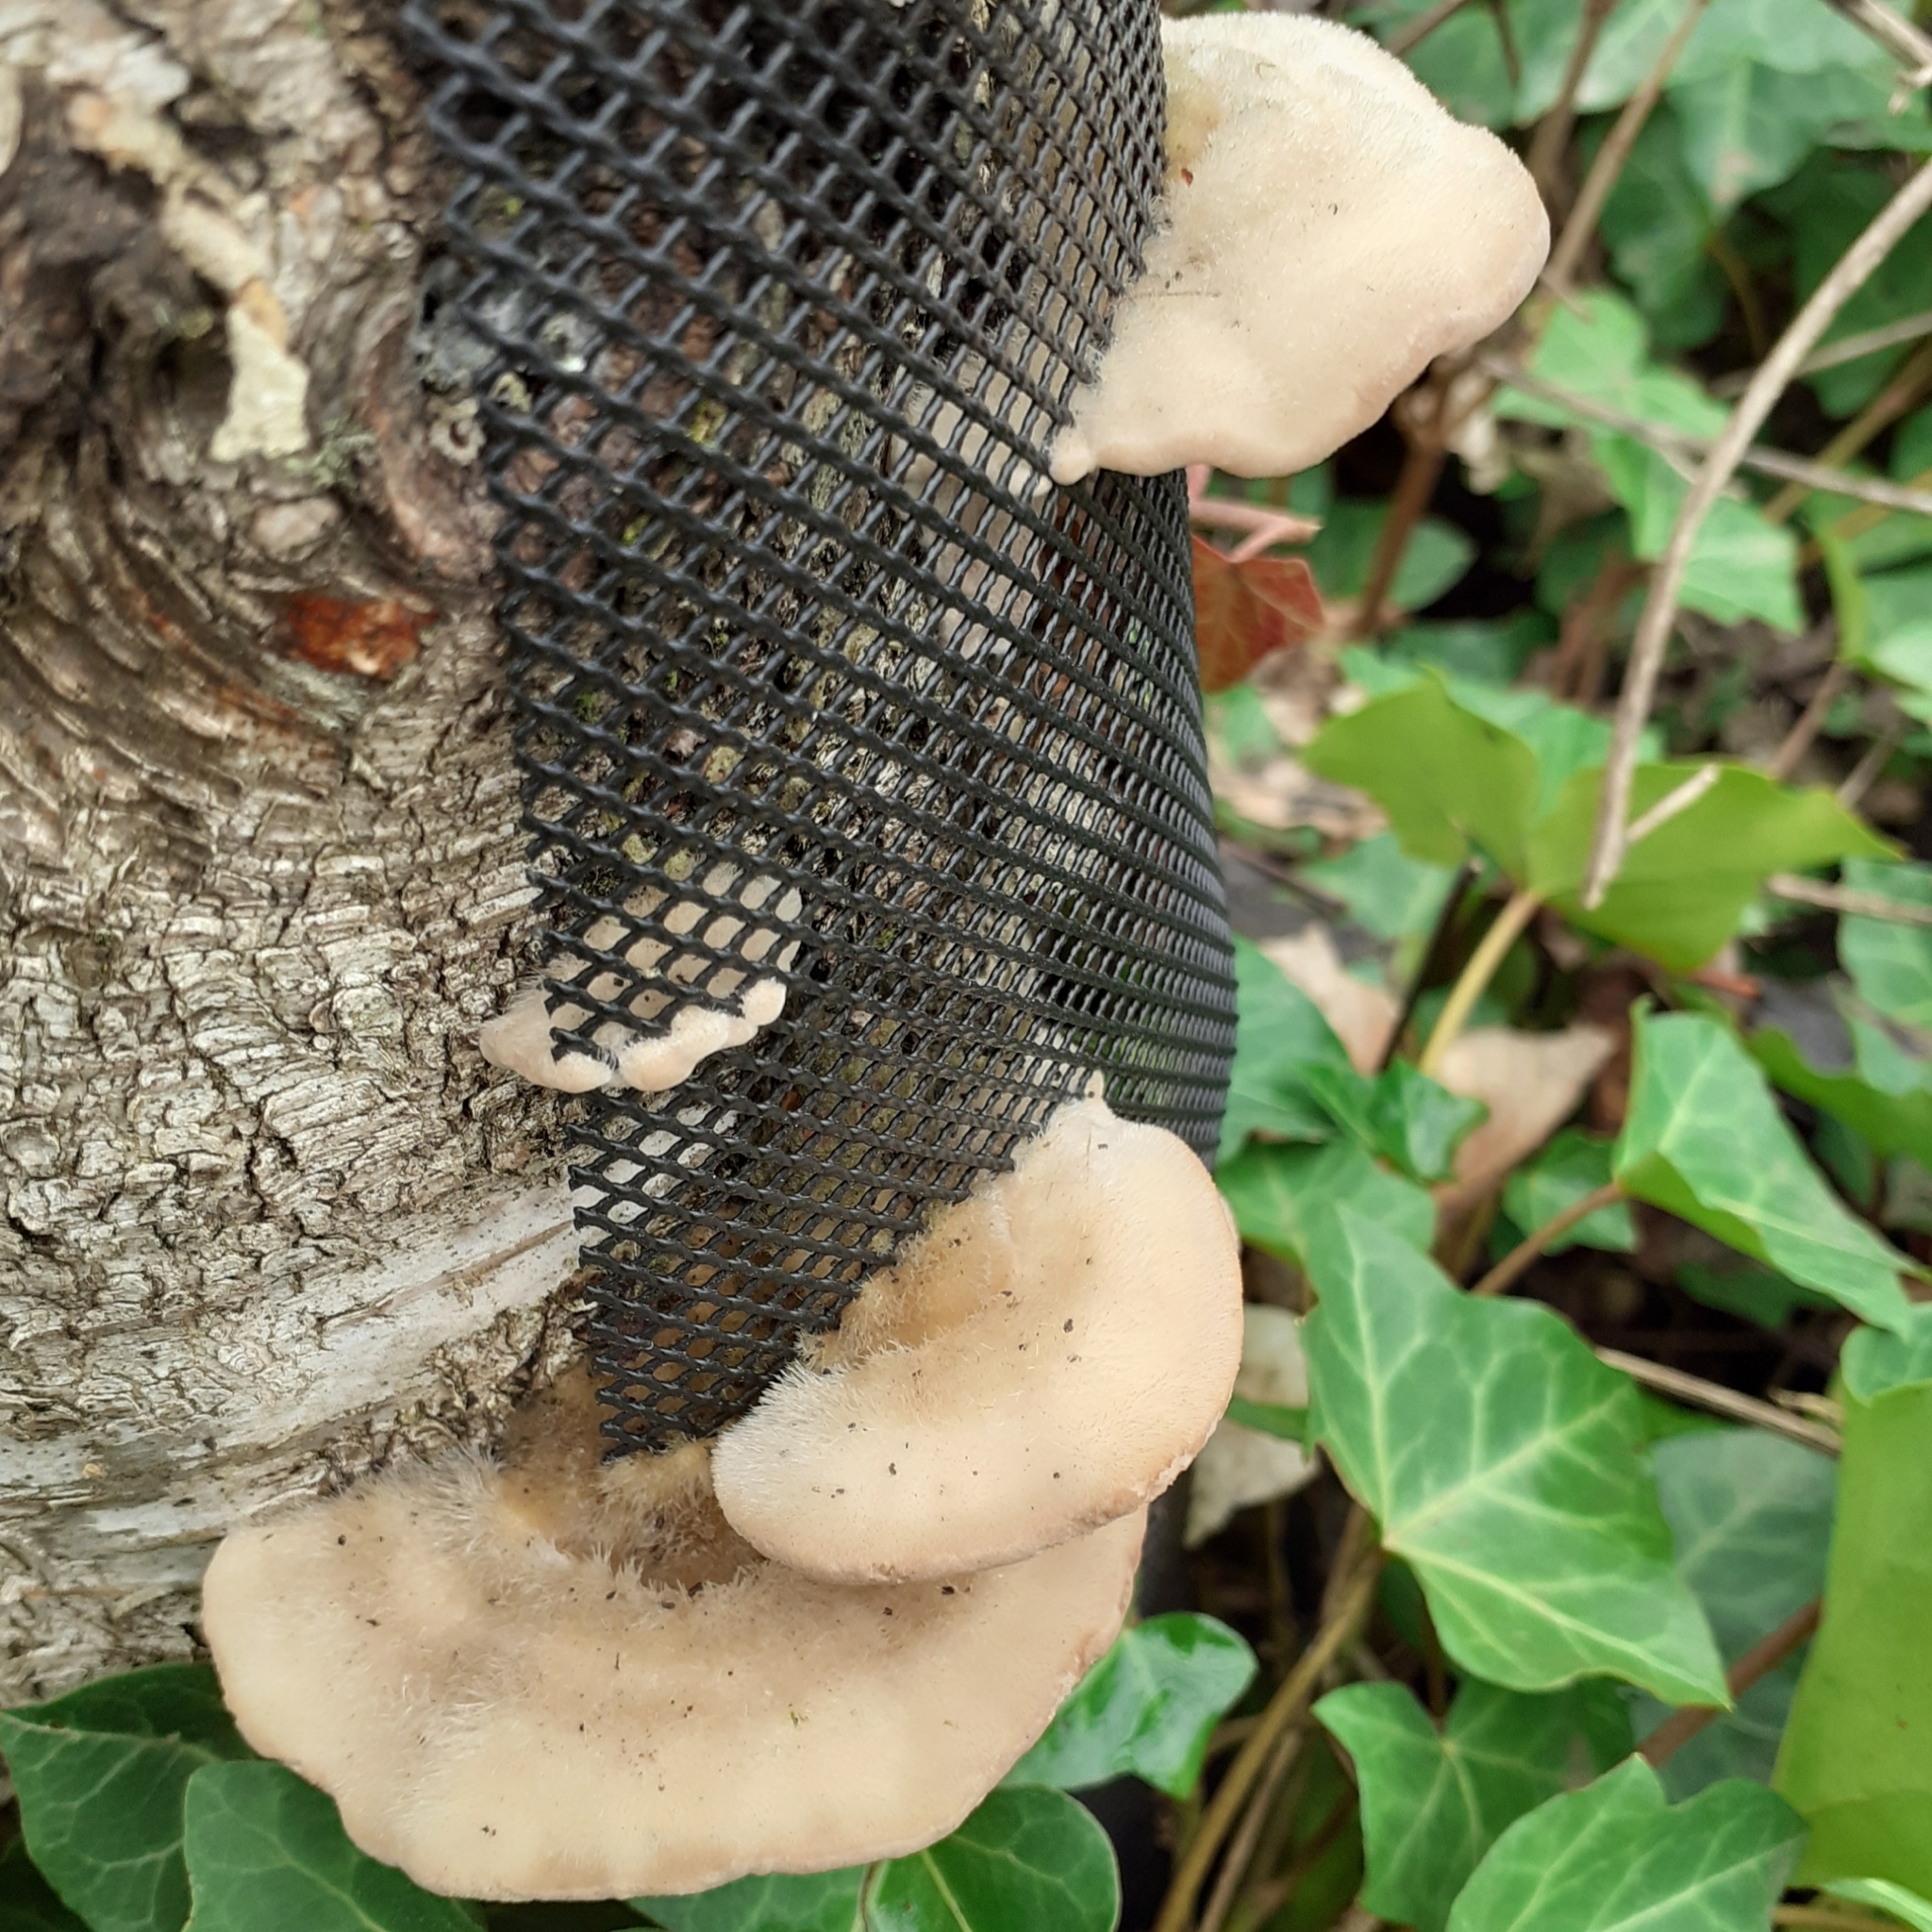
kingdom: Fungi
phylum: Basidiomycota
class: Agaricomycetes
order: Polyporales
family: Polyporaceae
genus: Trametes
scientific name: Trametes hirsuta
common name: Hairy bracket
